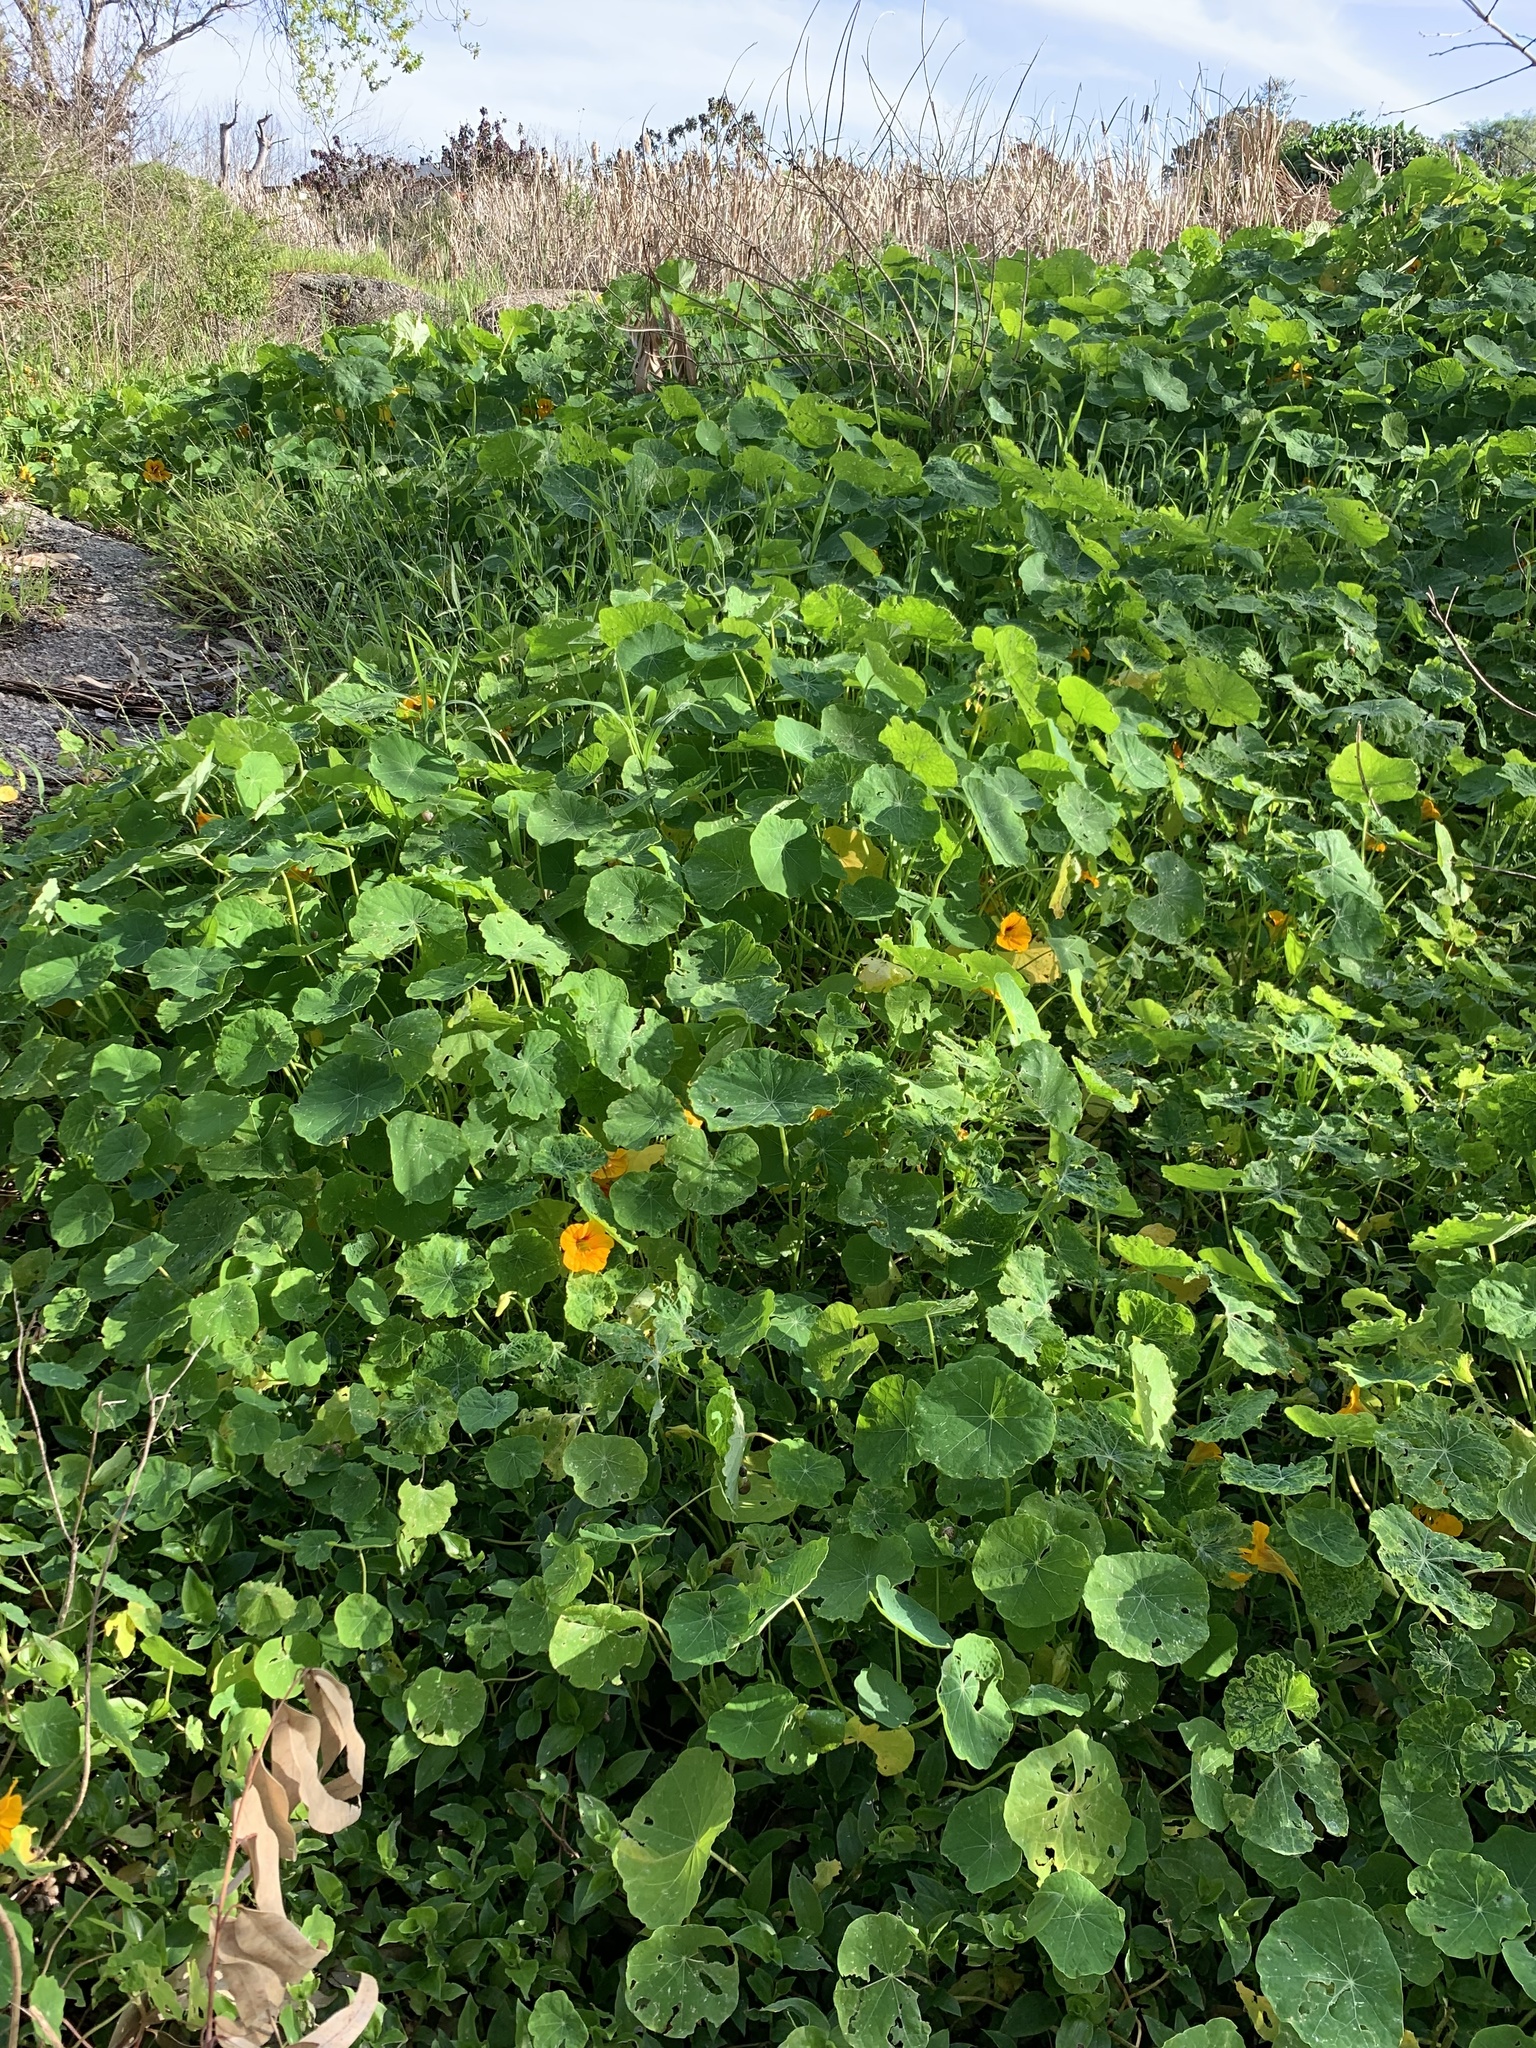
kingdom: Plantae
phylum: Tracheophyta
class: Magnoliopsida
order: Brassicales
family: Tropaeolaceae
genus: Tropaeolum
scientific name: Tropaeolum majus
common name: Nasturtium
